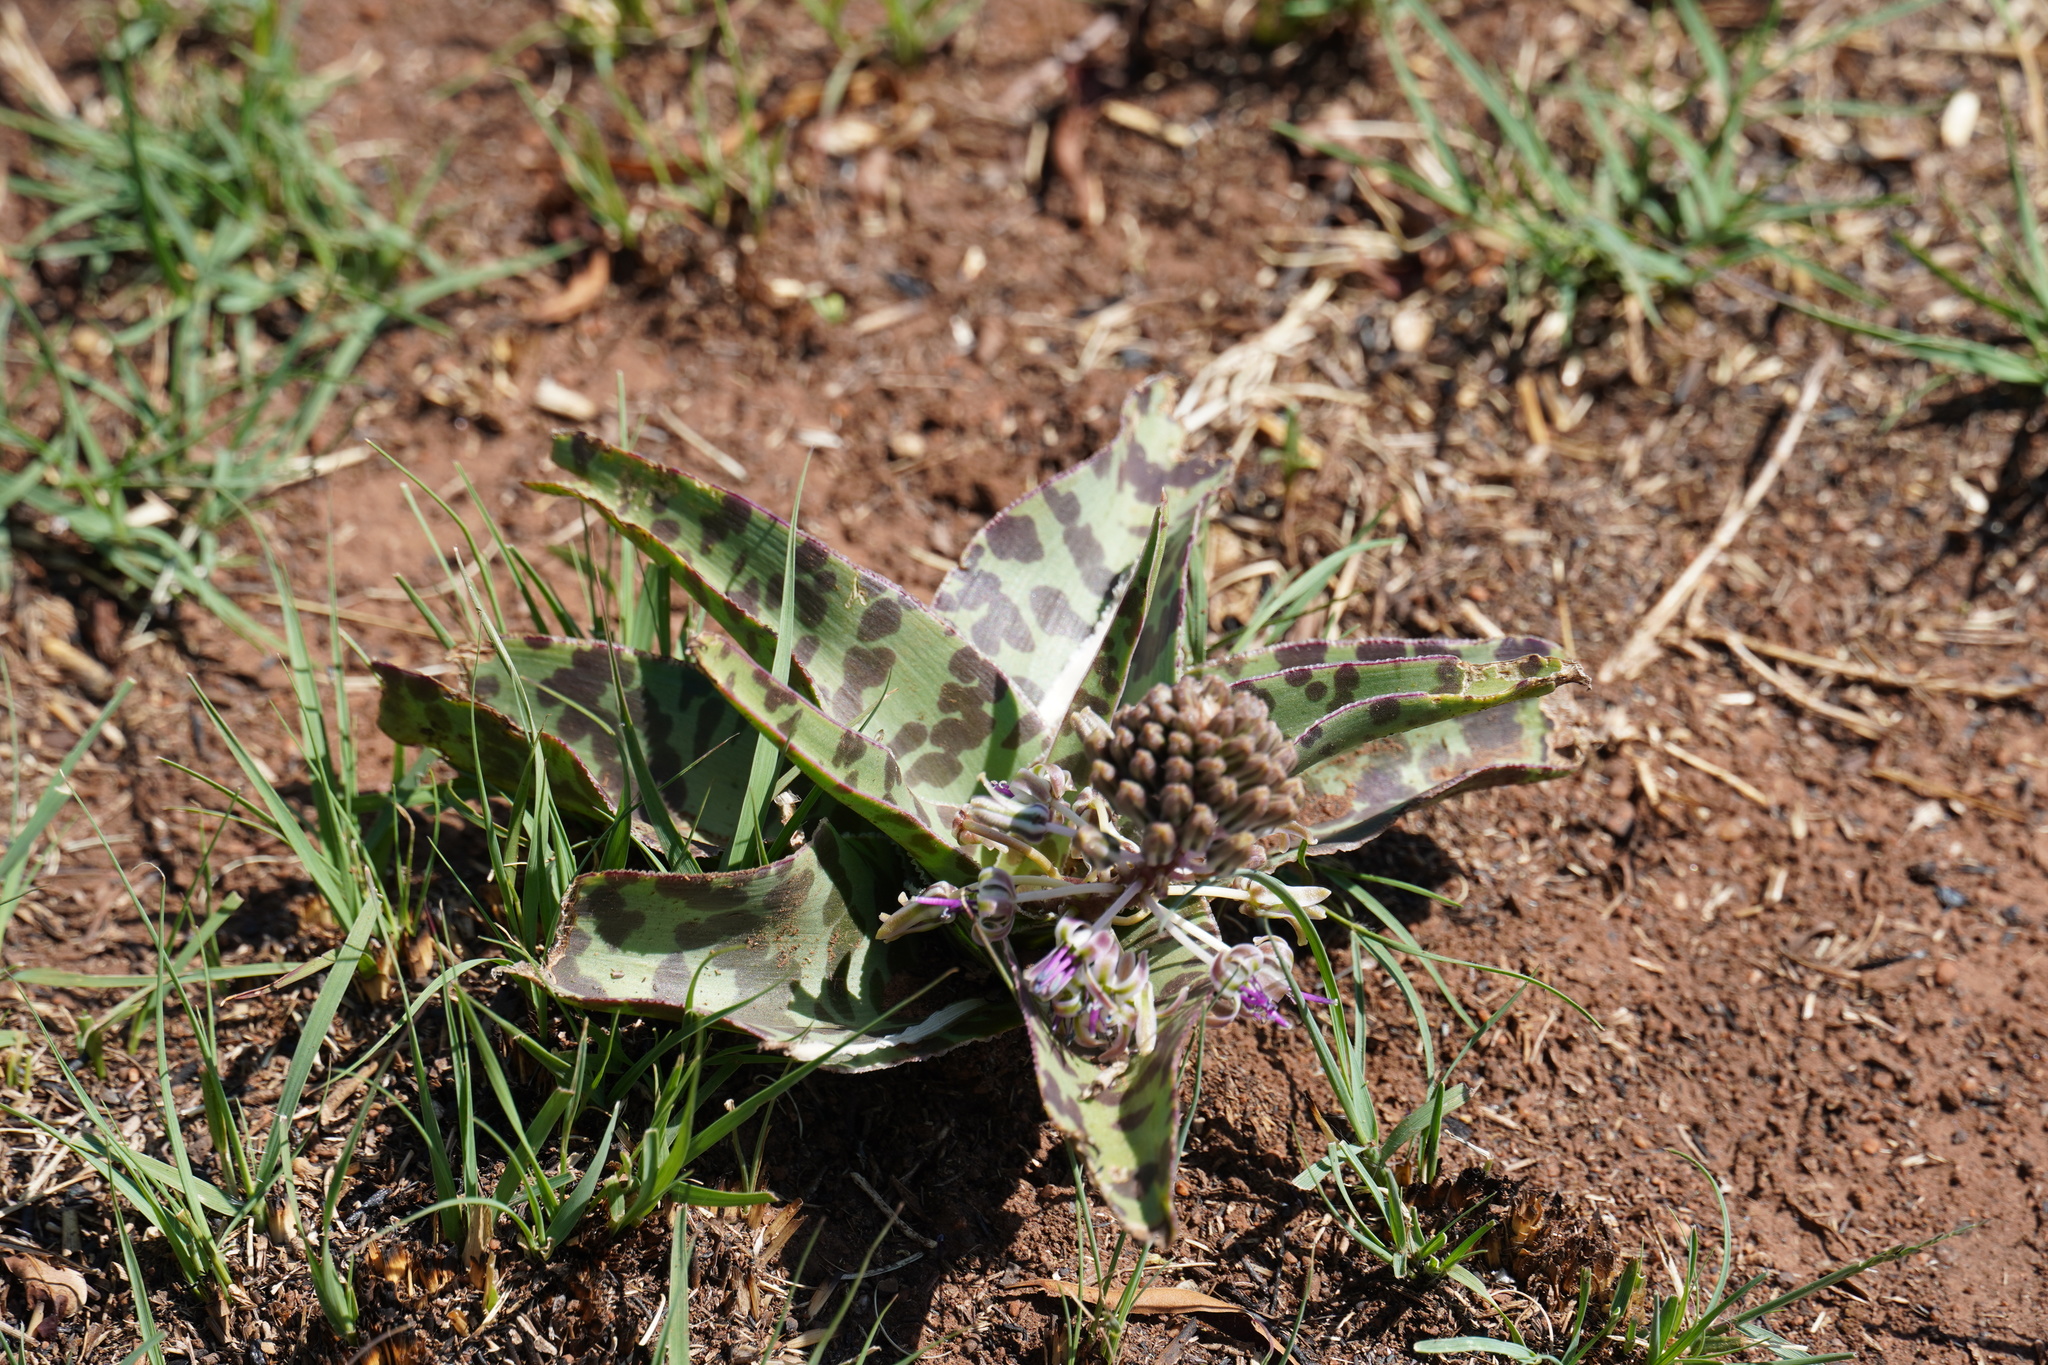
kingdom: Plantae
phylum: Tracheophyta
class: Liliopsida
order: Asparagales
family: Asparagaceae
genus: Ledebouria
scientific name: Ledebouria luteola
